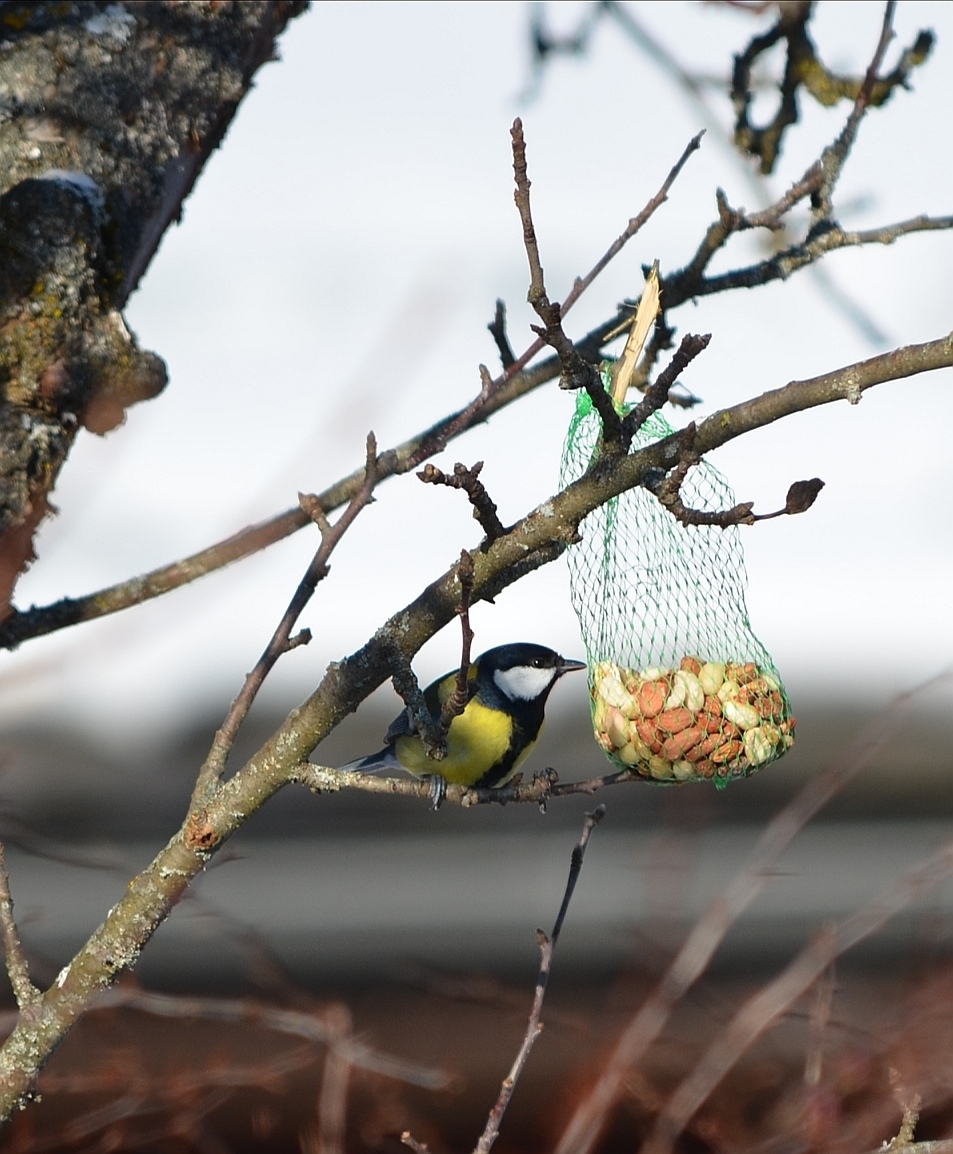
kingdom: Animalia
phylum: Chordata
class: Aves
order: Passeriformes
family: Paridae
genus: Parus
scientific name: Parus major
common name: Great tit
